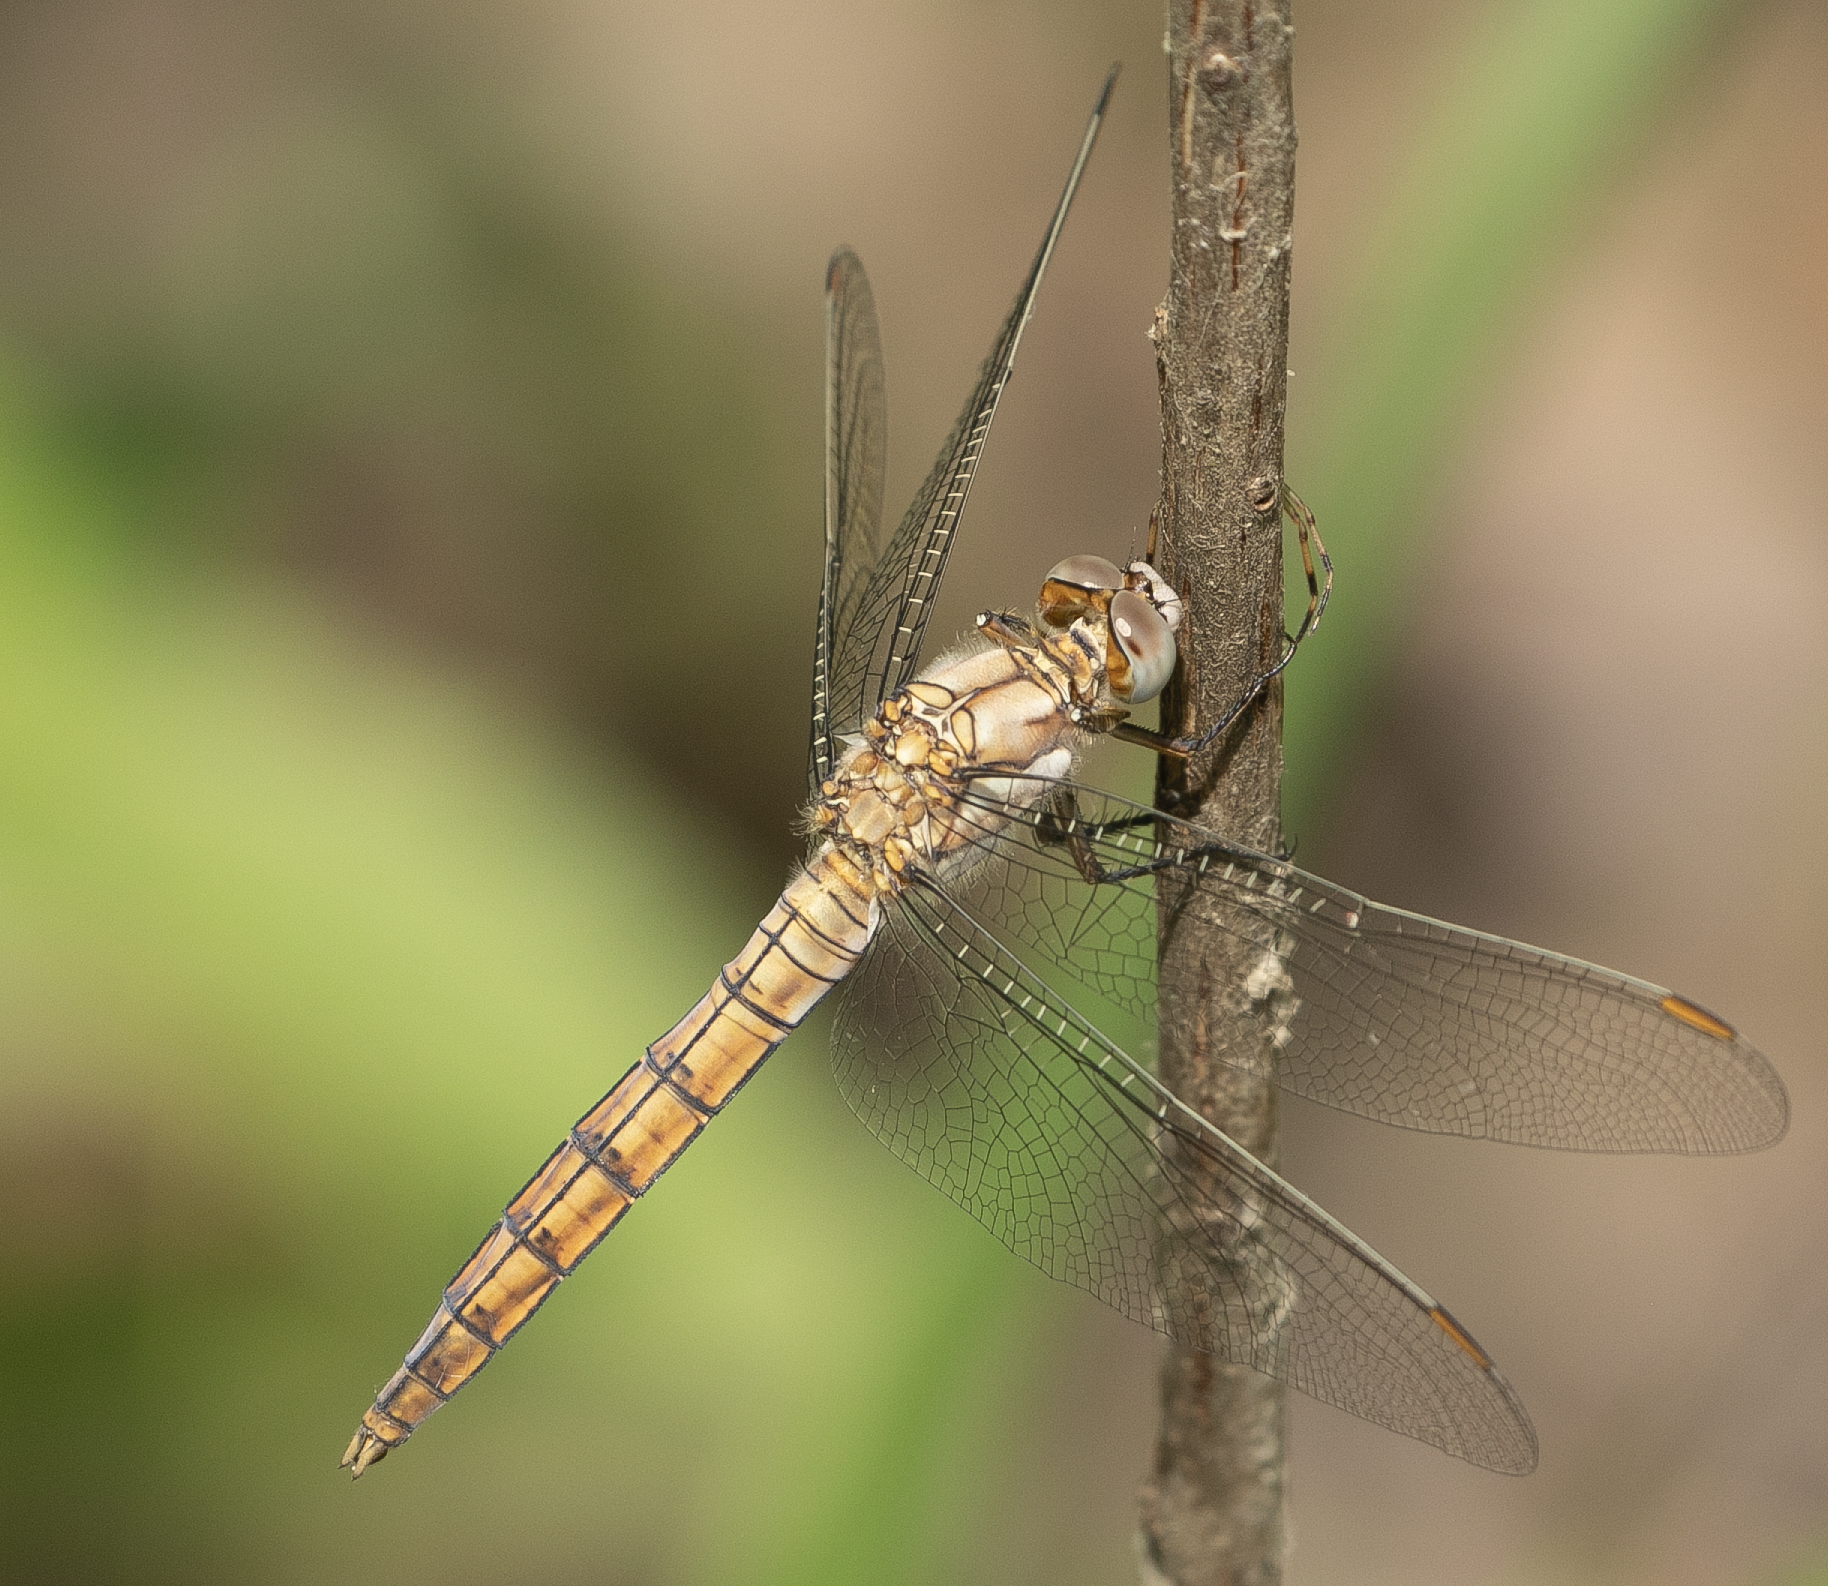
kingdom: Animalia
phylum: Arthropoda
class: Insecta
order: Odonata
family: Libellulidae
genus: Orthetrum
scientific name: Orthetrum brunneum
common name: Southern skimmer
